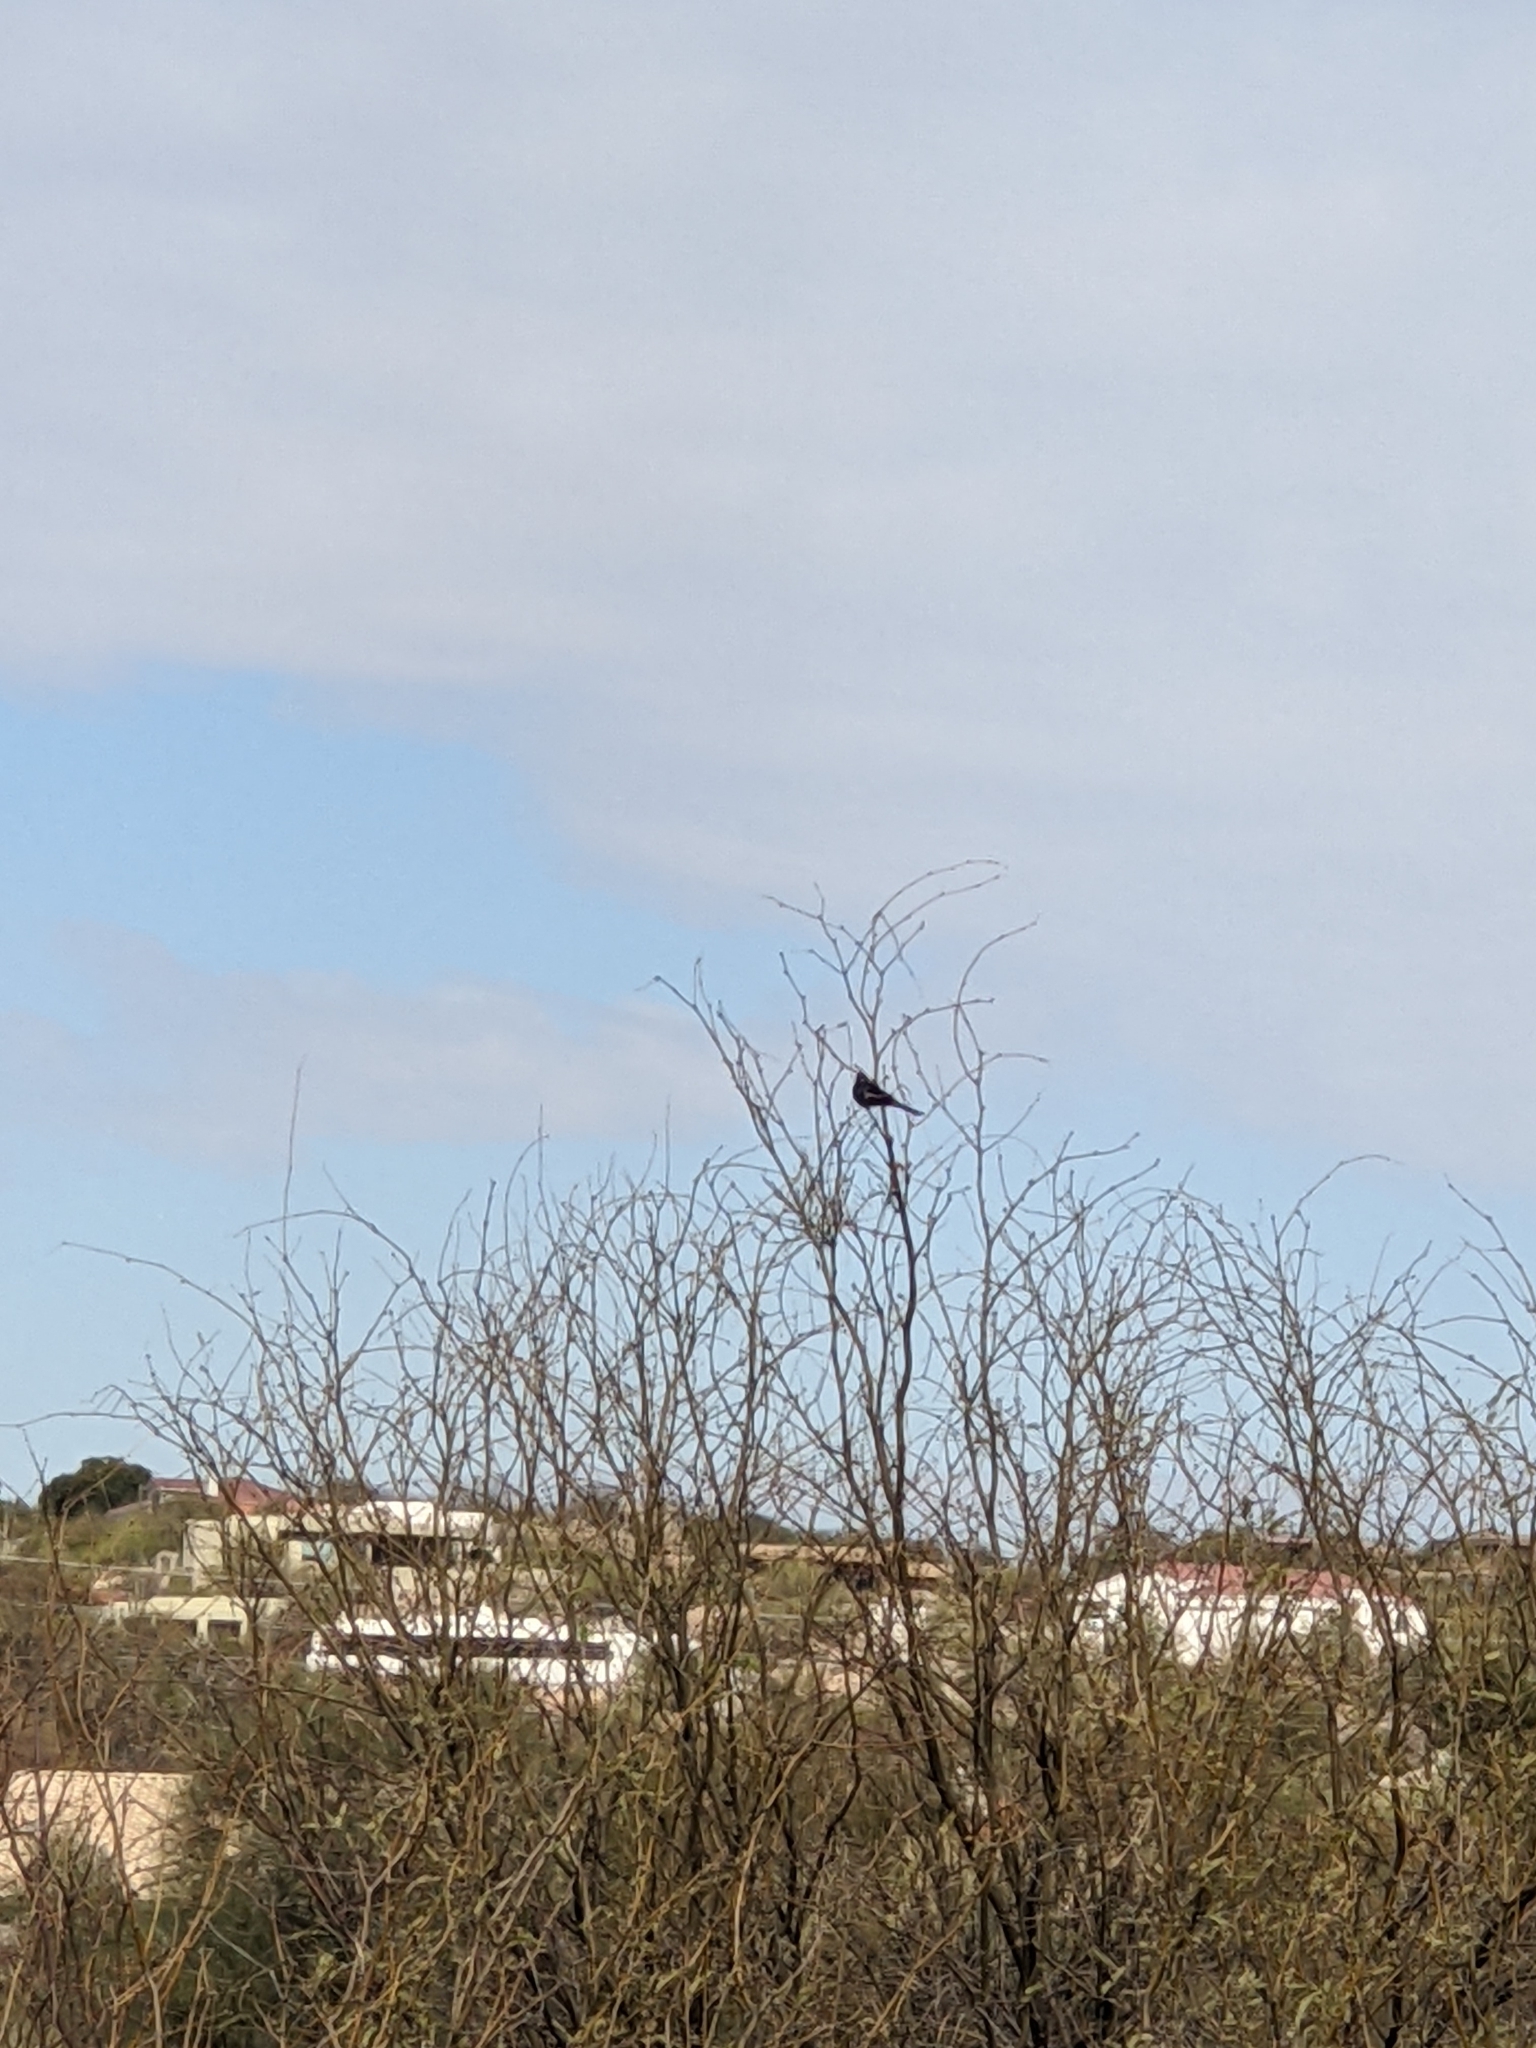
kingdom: Animalia
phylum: Chordata
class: Aves
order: Passeriformes
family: Ptilogonatidae
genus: Phainopepla
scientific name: Phainopepla nitens
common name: Phainopepla
